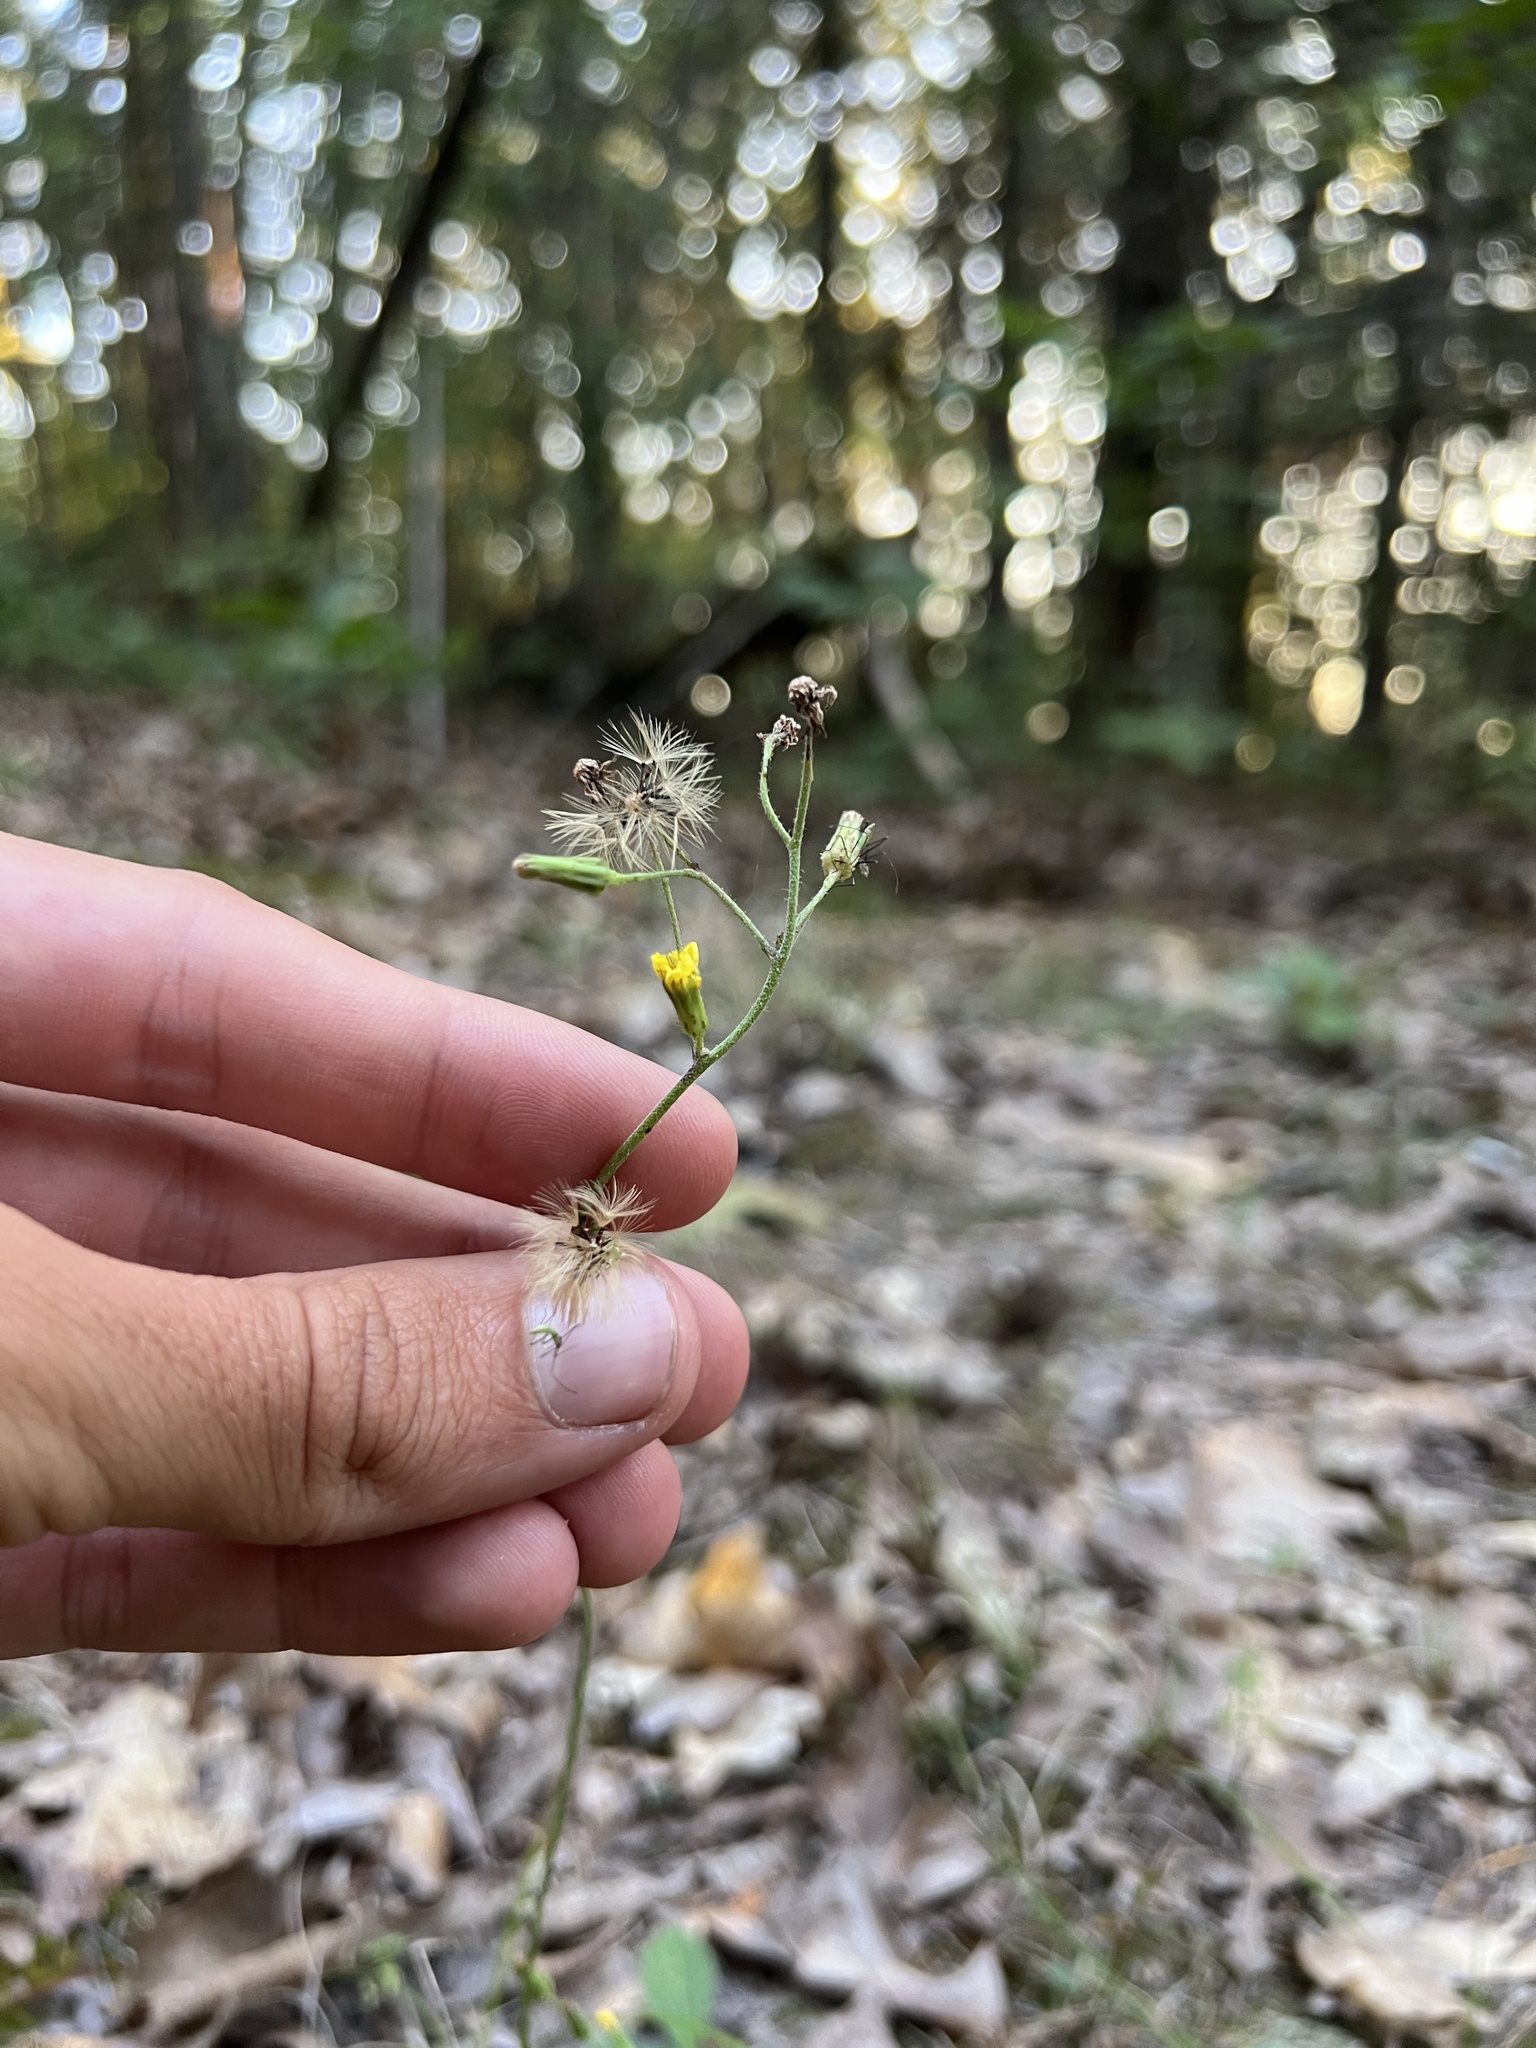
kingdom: Plantae
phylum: Tracheophyta
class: Magnoliopsida
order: Asterales
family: Asteraceae
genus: Hieracium
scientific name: Hieracium gronovii
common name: Beaked hawkweed
